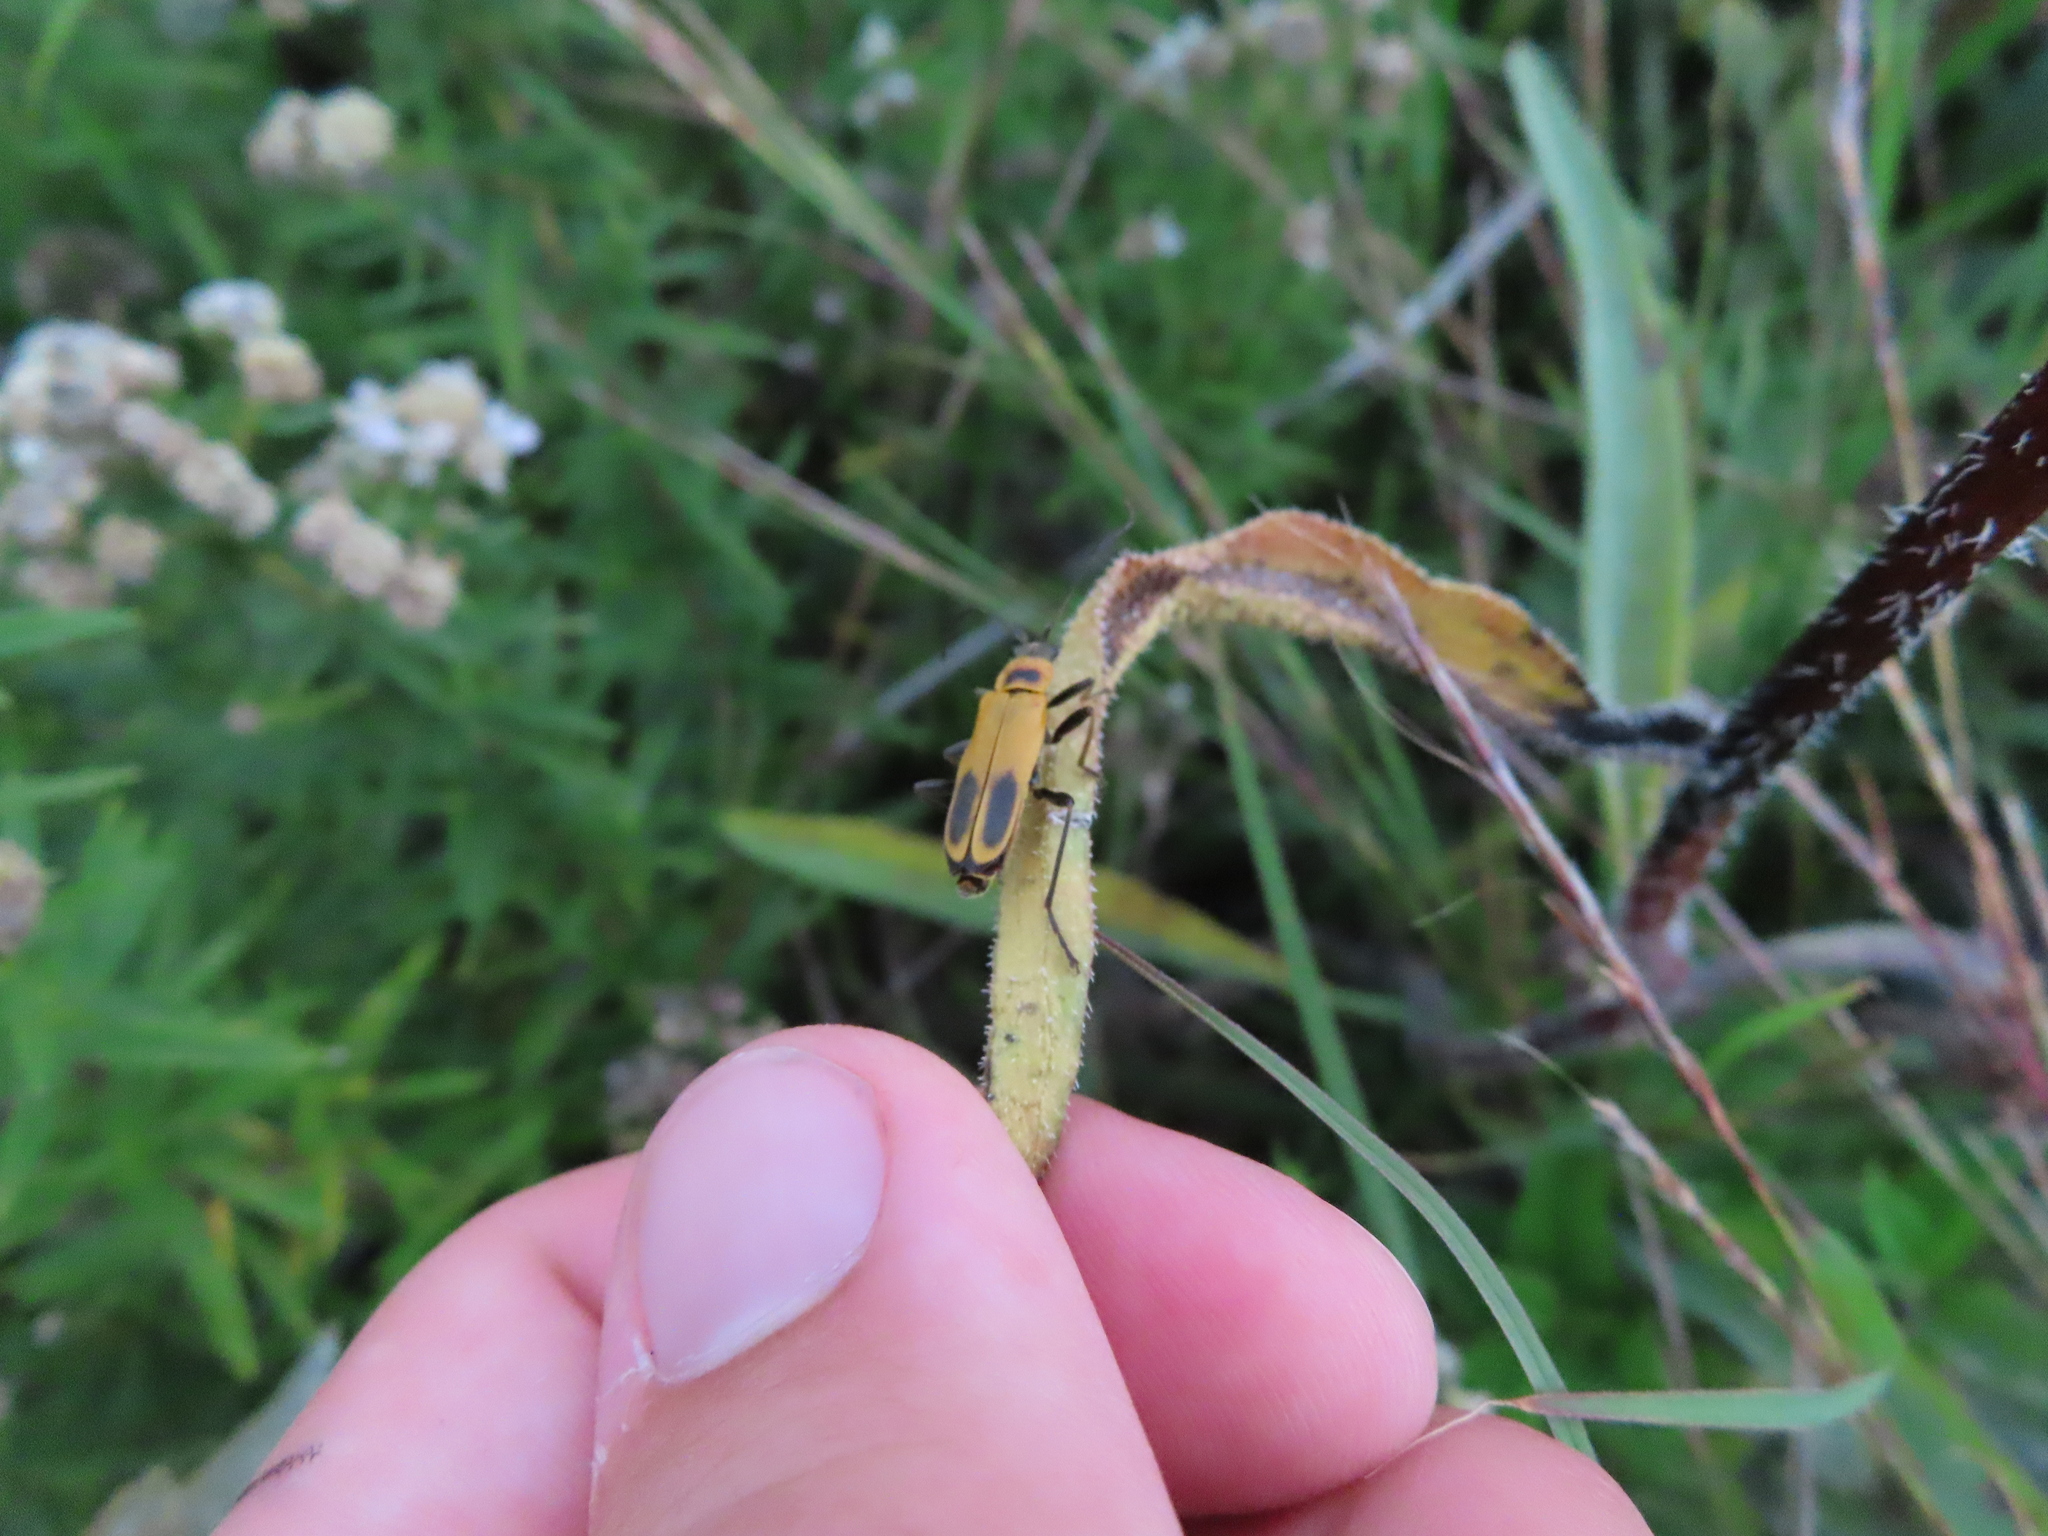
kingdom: Animalia
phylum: Arthropoda
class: Insecta
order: Coleoptera
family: Cantharidae
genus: Chauliognathus
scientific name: Chauliognathus pensylvanicus
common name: Goldenrod soldier beetle
